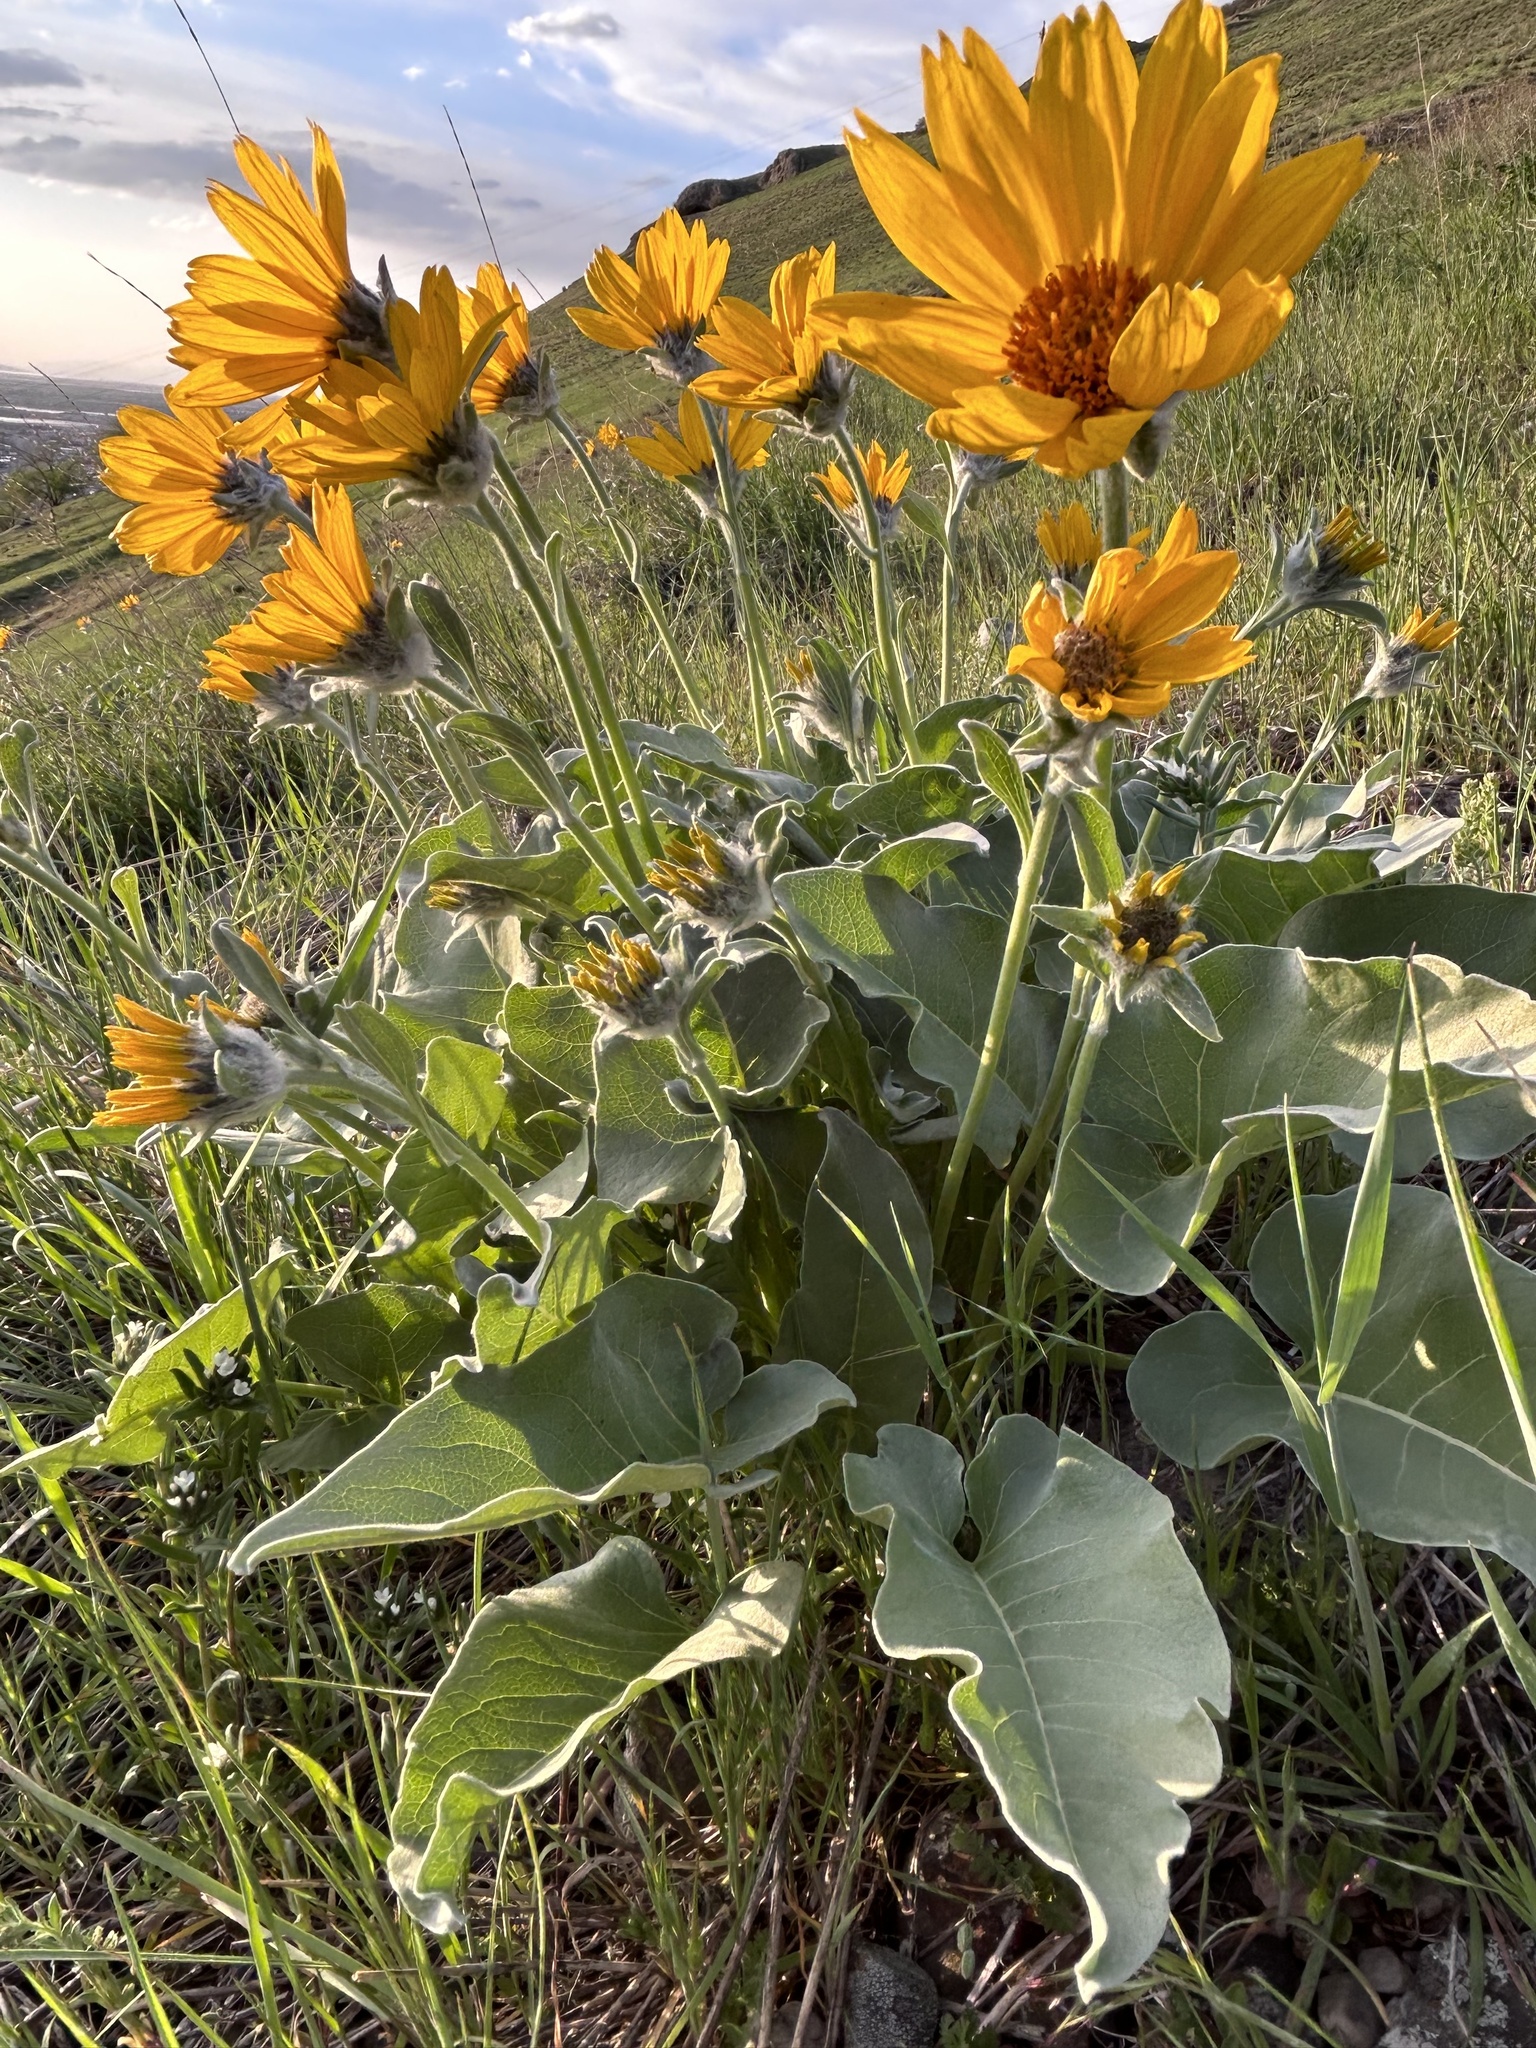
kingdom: Plantae
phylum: Tracheophyta
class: Magnoliopsida
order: Asterales
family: Asteraceae
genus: Wyethia
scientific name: Wyethia sagittata
